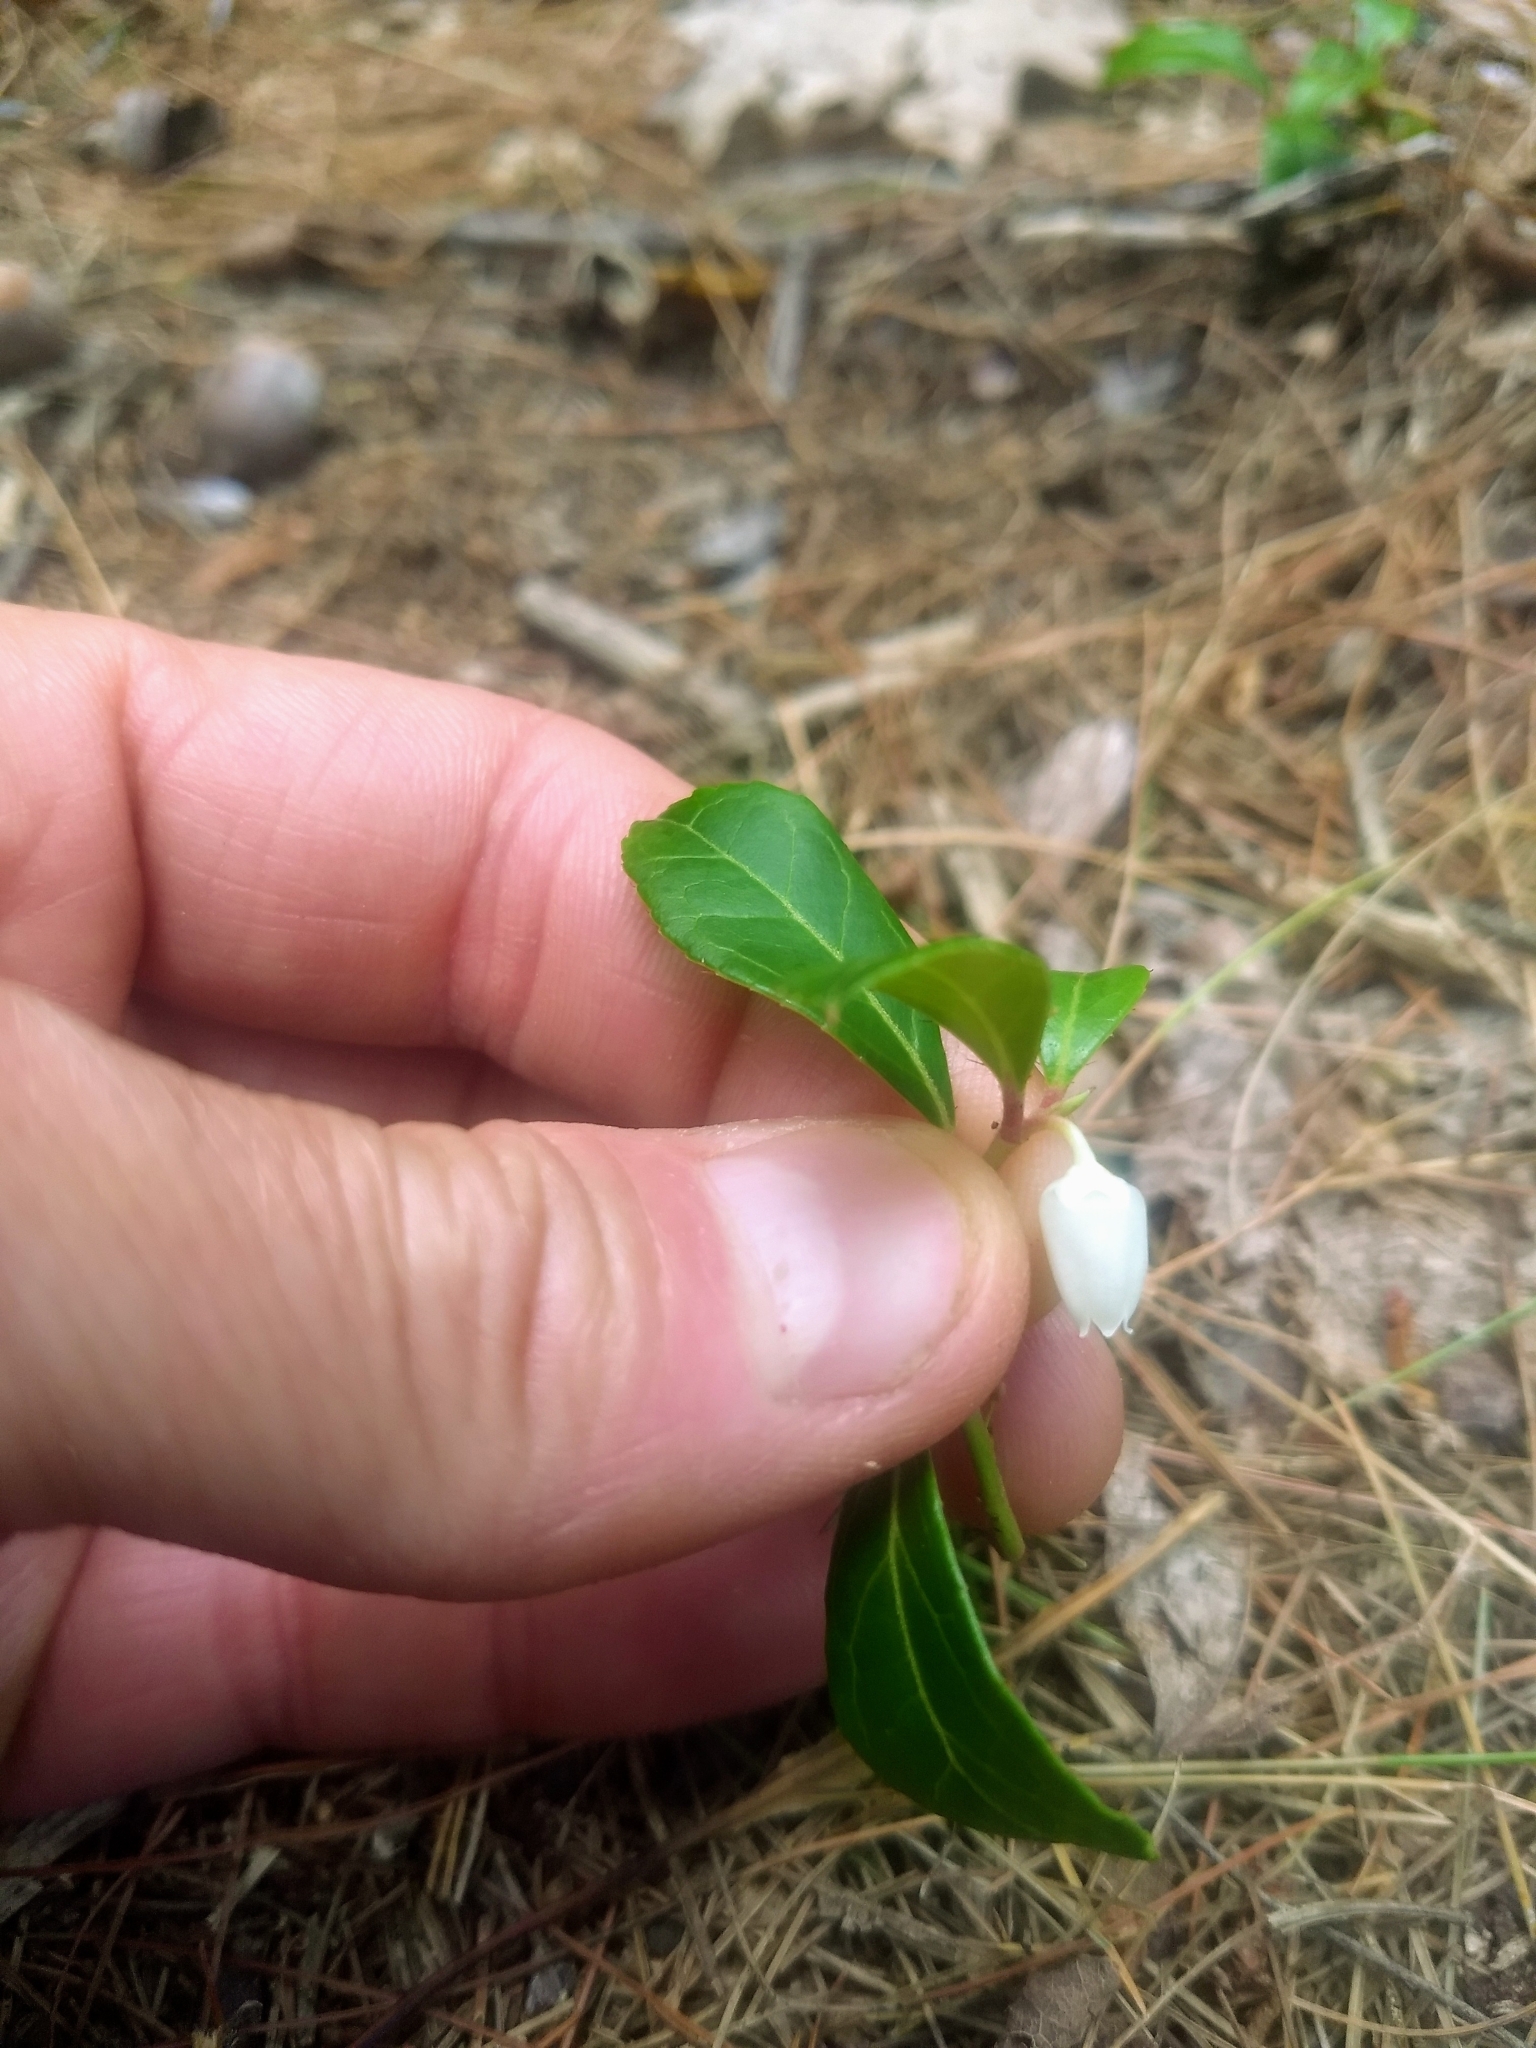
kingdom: Plantae
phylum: Tracheophyta
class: Magnoliopsida
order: Ericales
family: Ericaceae
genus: Gaultheria
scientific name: Gaultheria procumbens
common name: Checkerberry
